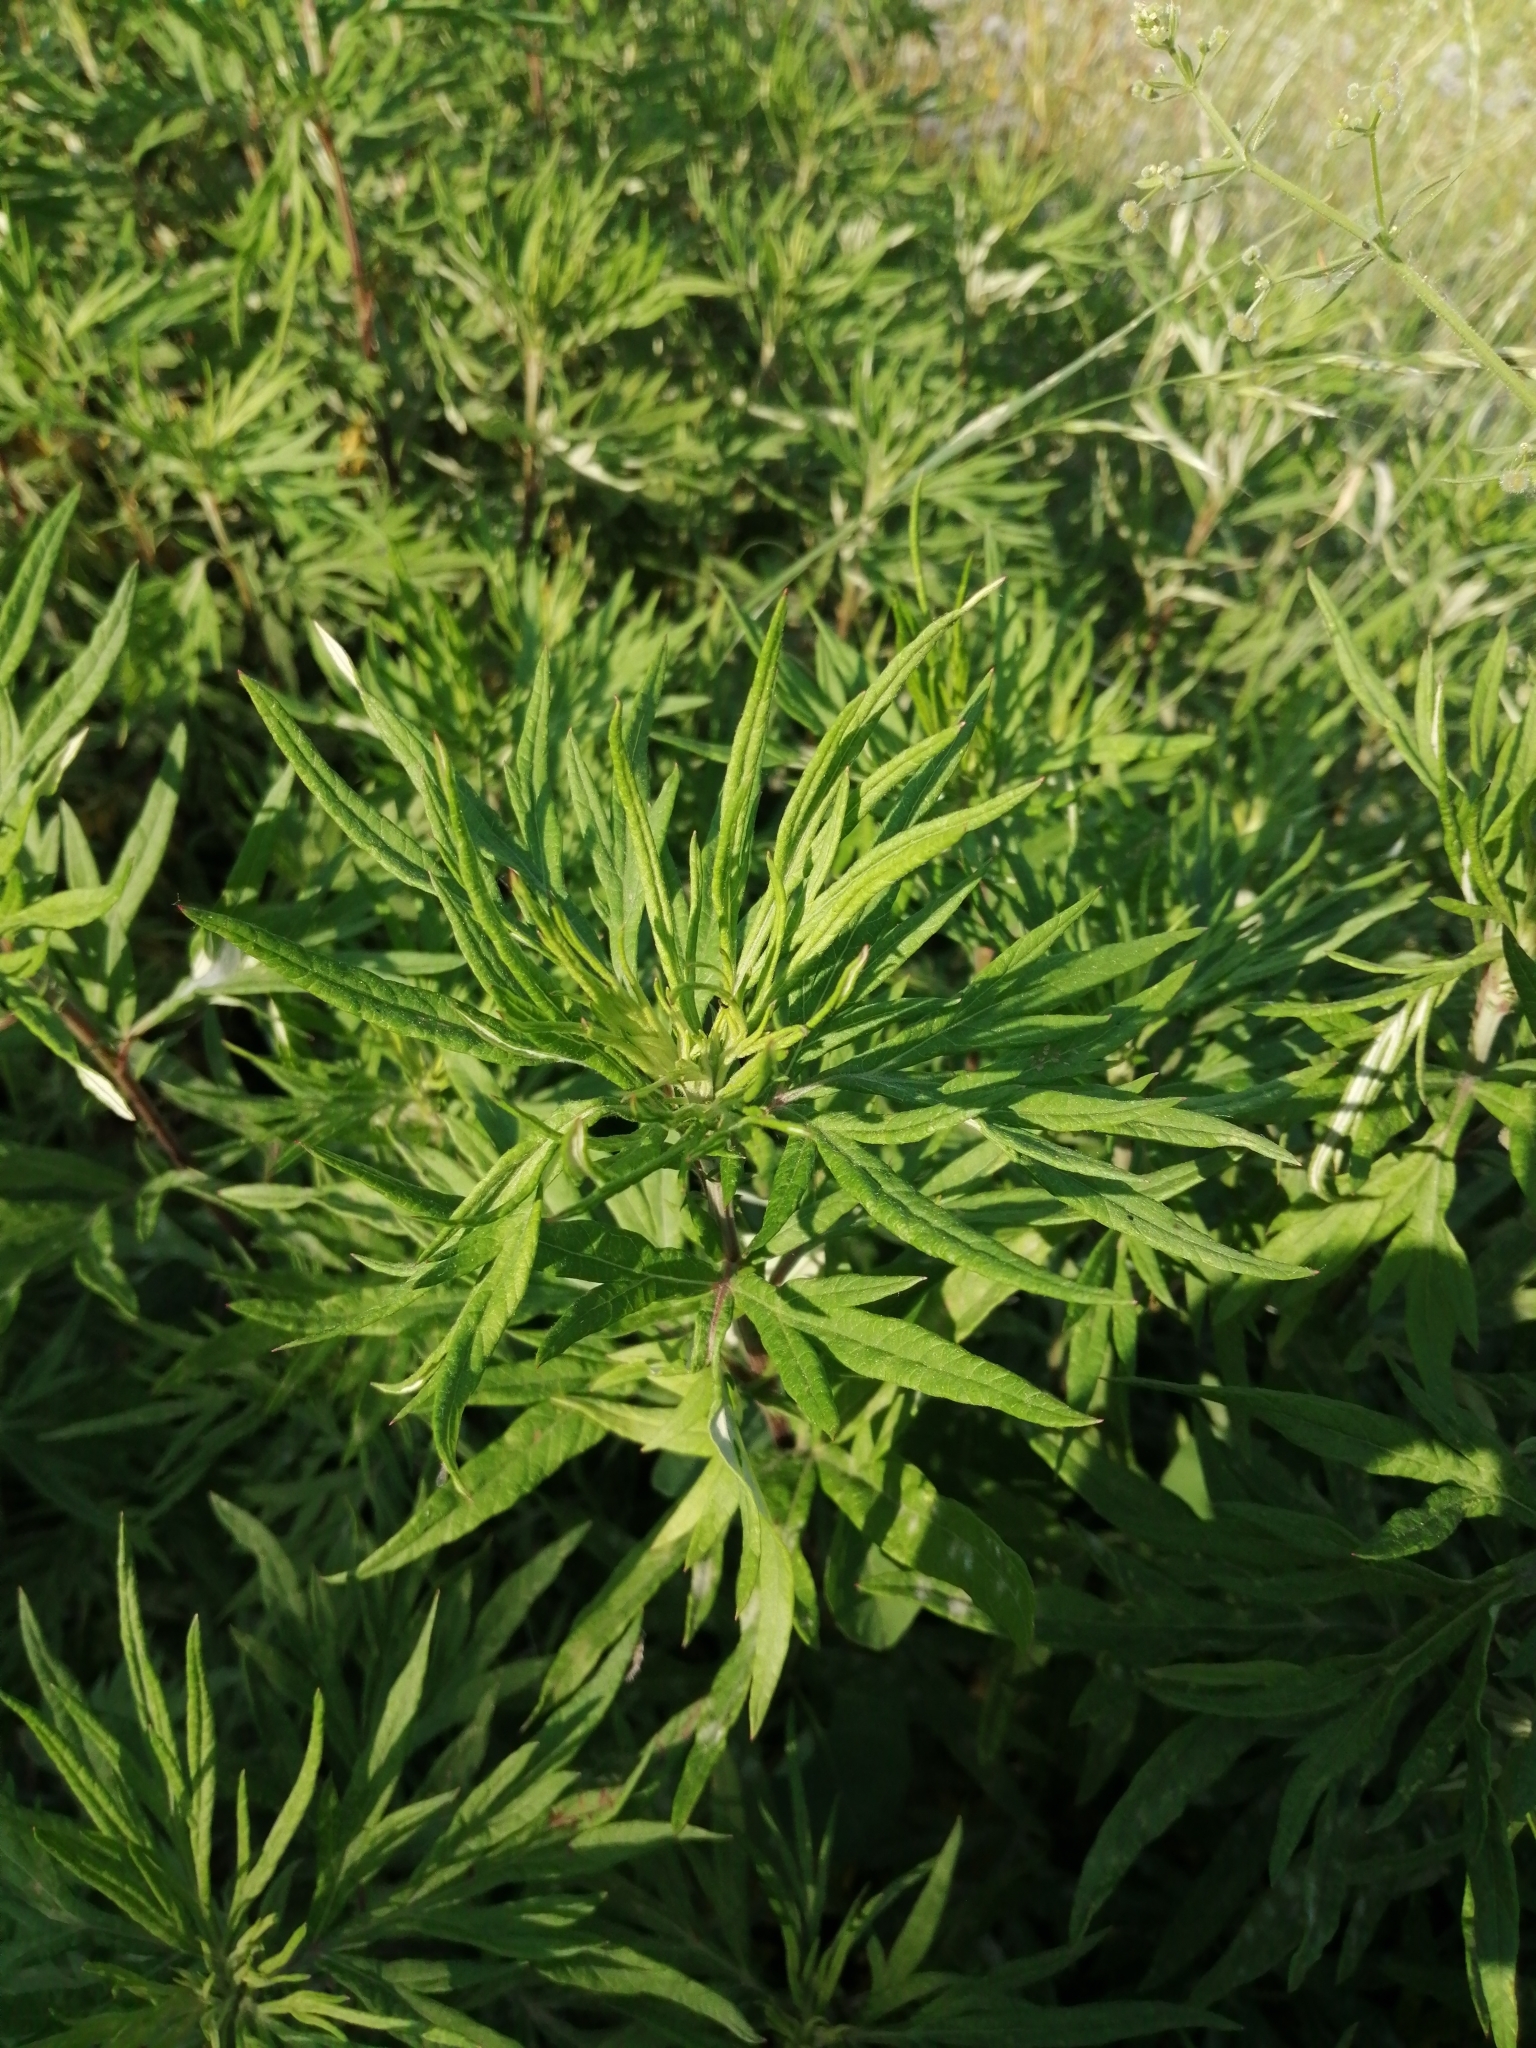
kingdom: Plantae
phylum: Tracheophyta
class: Magnoliopsida
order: Asterales
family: Asteraceae
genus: Artemisia
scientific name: Artemisia verlotiorum
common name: Chinese mugwort
